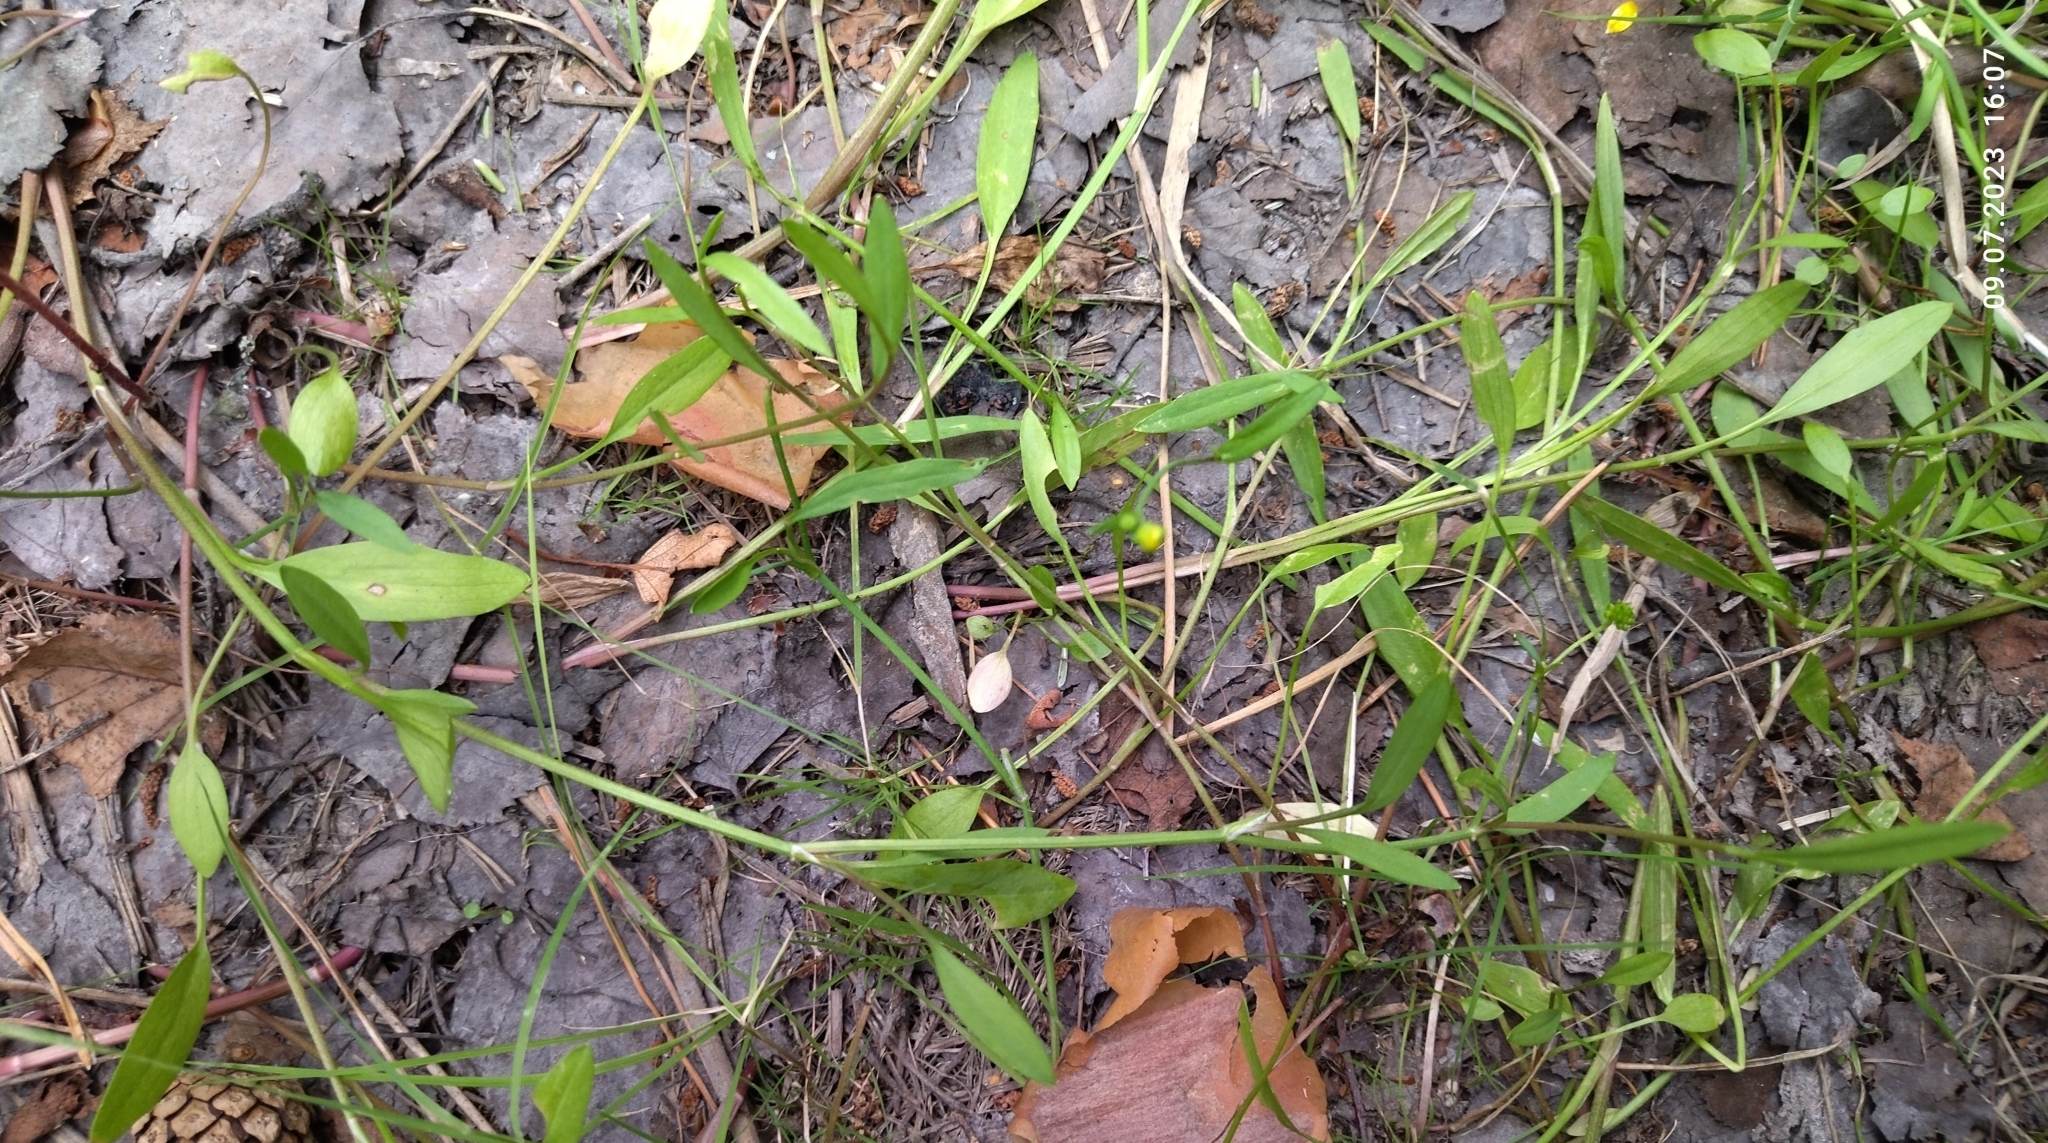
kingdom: Plantae
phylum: Tracheophyta
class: Magnoliopsida
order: Ranunculales
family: Ranunculaceae
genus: Ranunculus
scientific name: Ranunculus flammula
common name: Lesser spearwort
